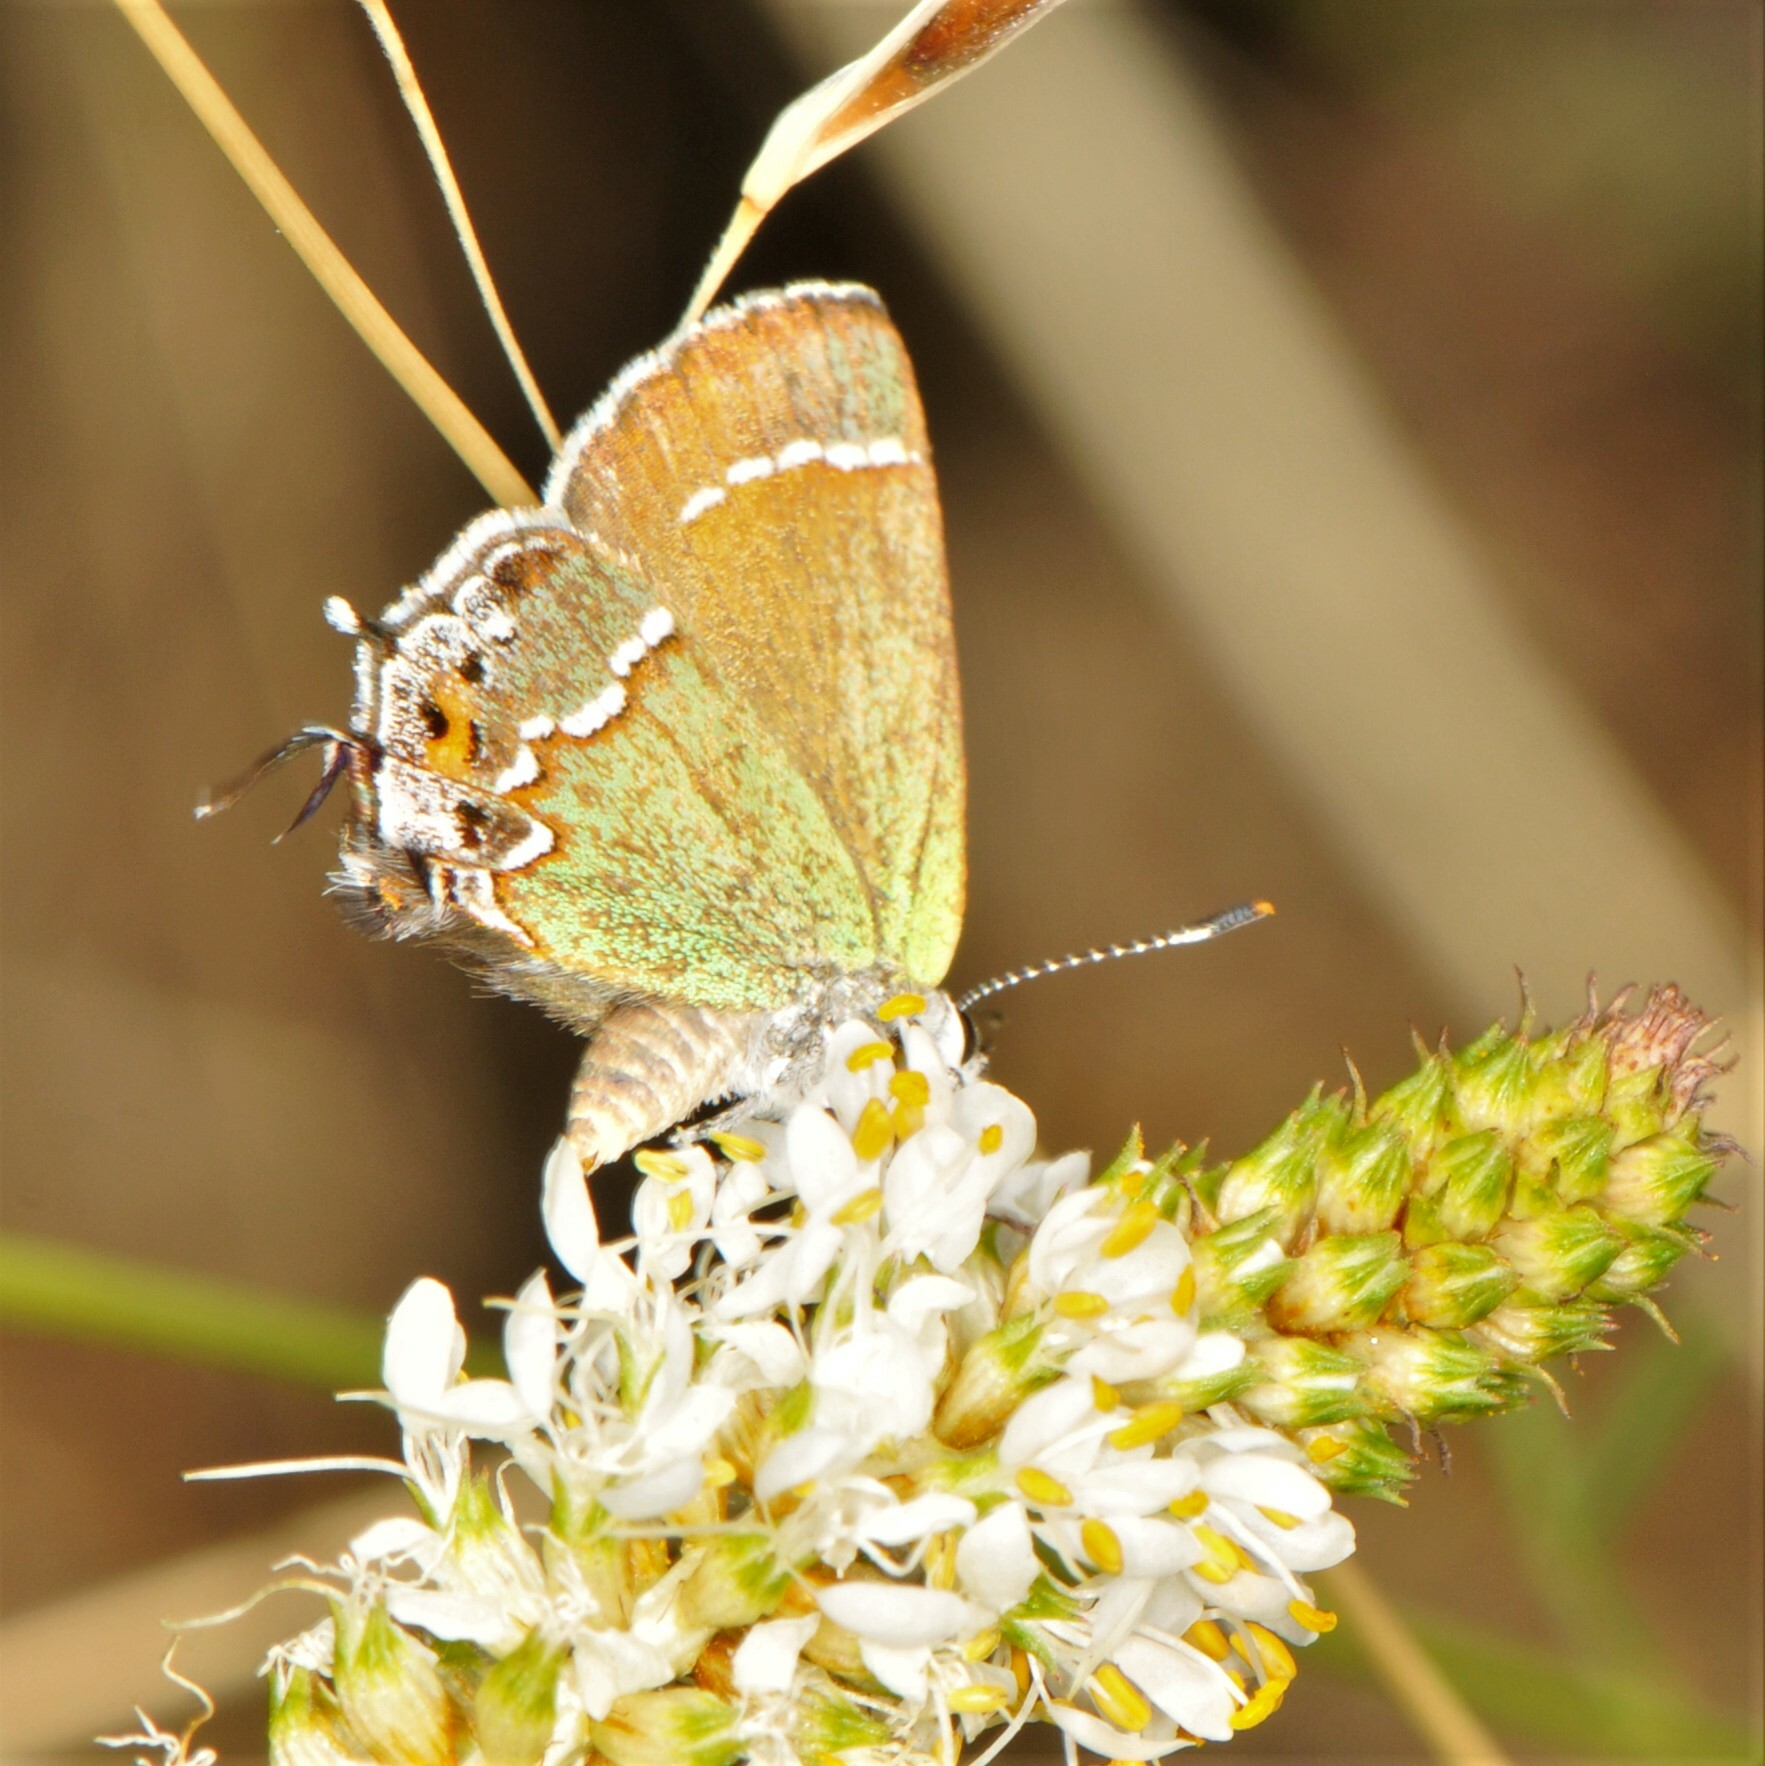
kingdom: Animalia
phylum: Arthropoda
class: Insecta
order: Lepidoptera
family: Lycaenidae
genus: Mitoura
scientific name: Mitoura gryneus
